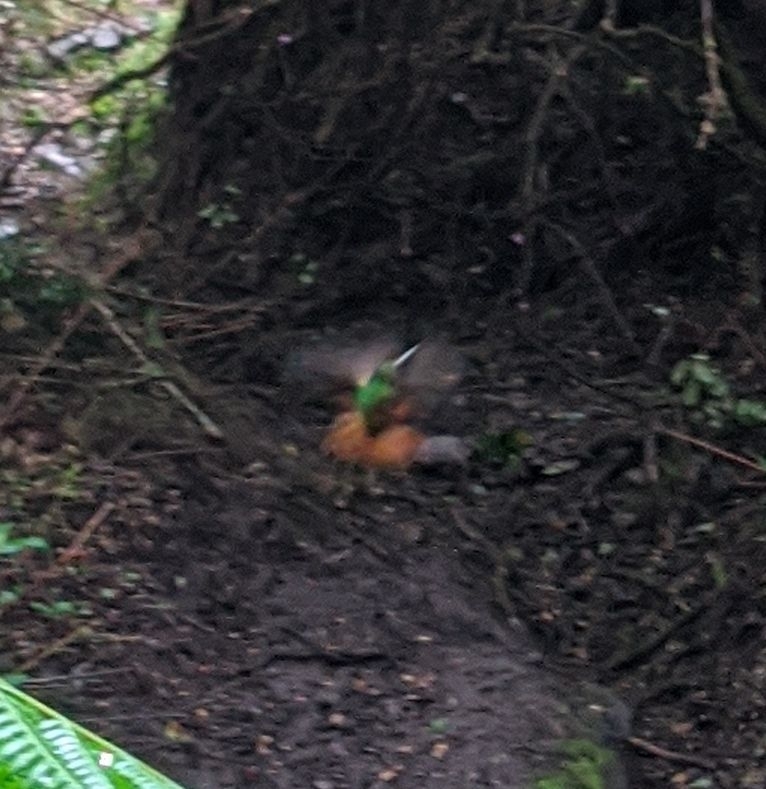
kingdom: Animalia
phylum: Chordata
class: Aves
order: Apodiformes
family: Trochilidae
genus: Coeligena
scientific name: Coeligena bonapartei
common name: Golden-bellied starfrontlet
